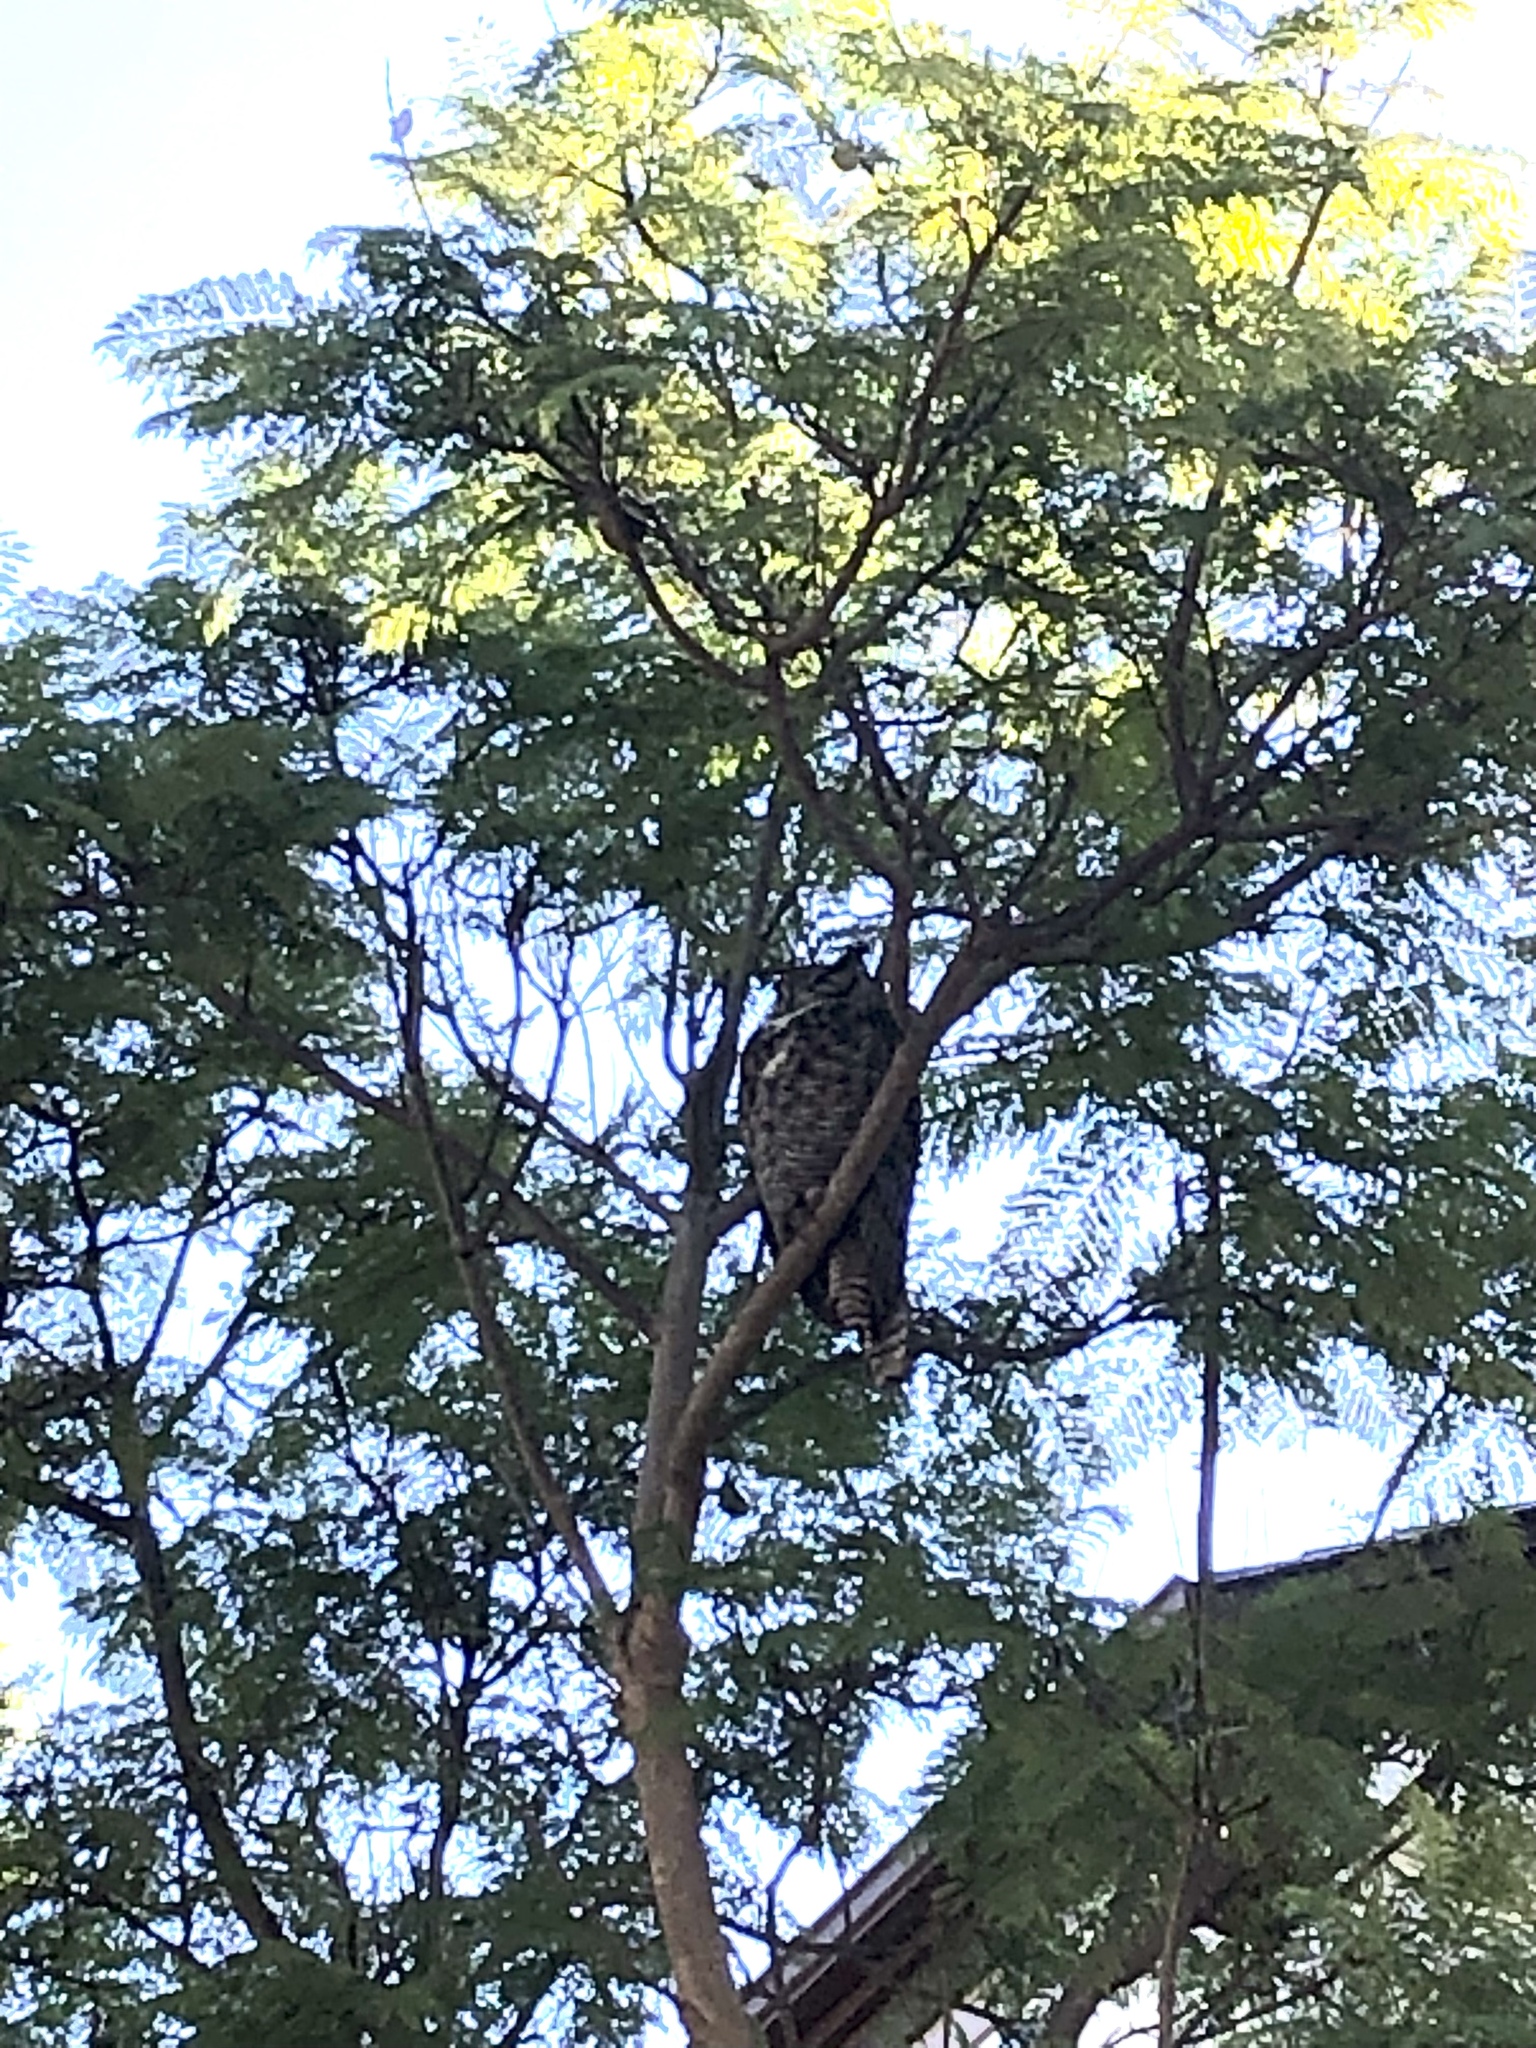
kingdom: Animalia
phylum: Chordata
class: Aves
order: Strigiformes
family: Strigidae
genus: Bubo
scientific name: Bubo virginianus
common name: Great horned owl
